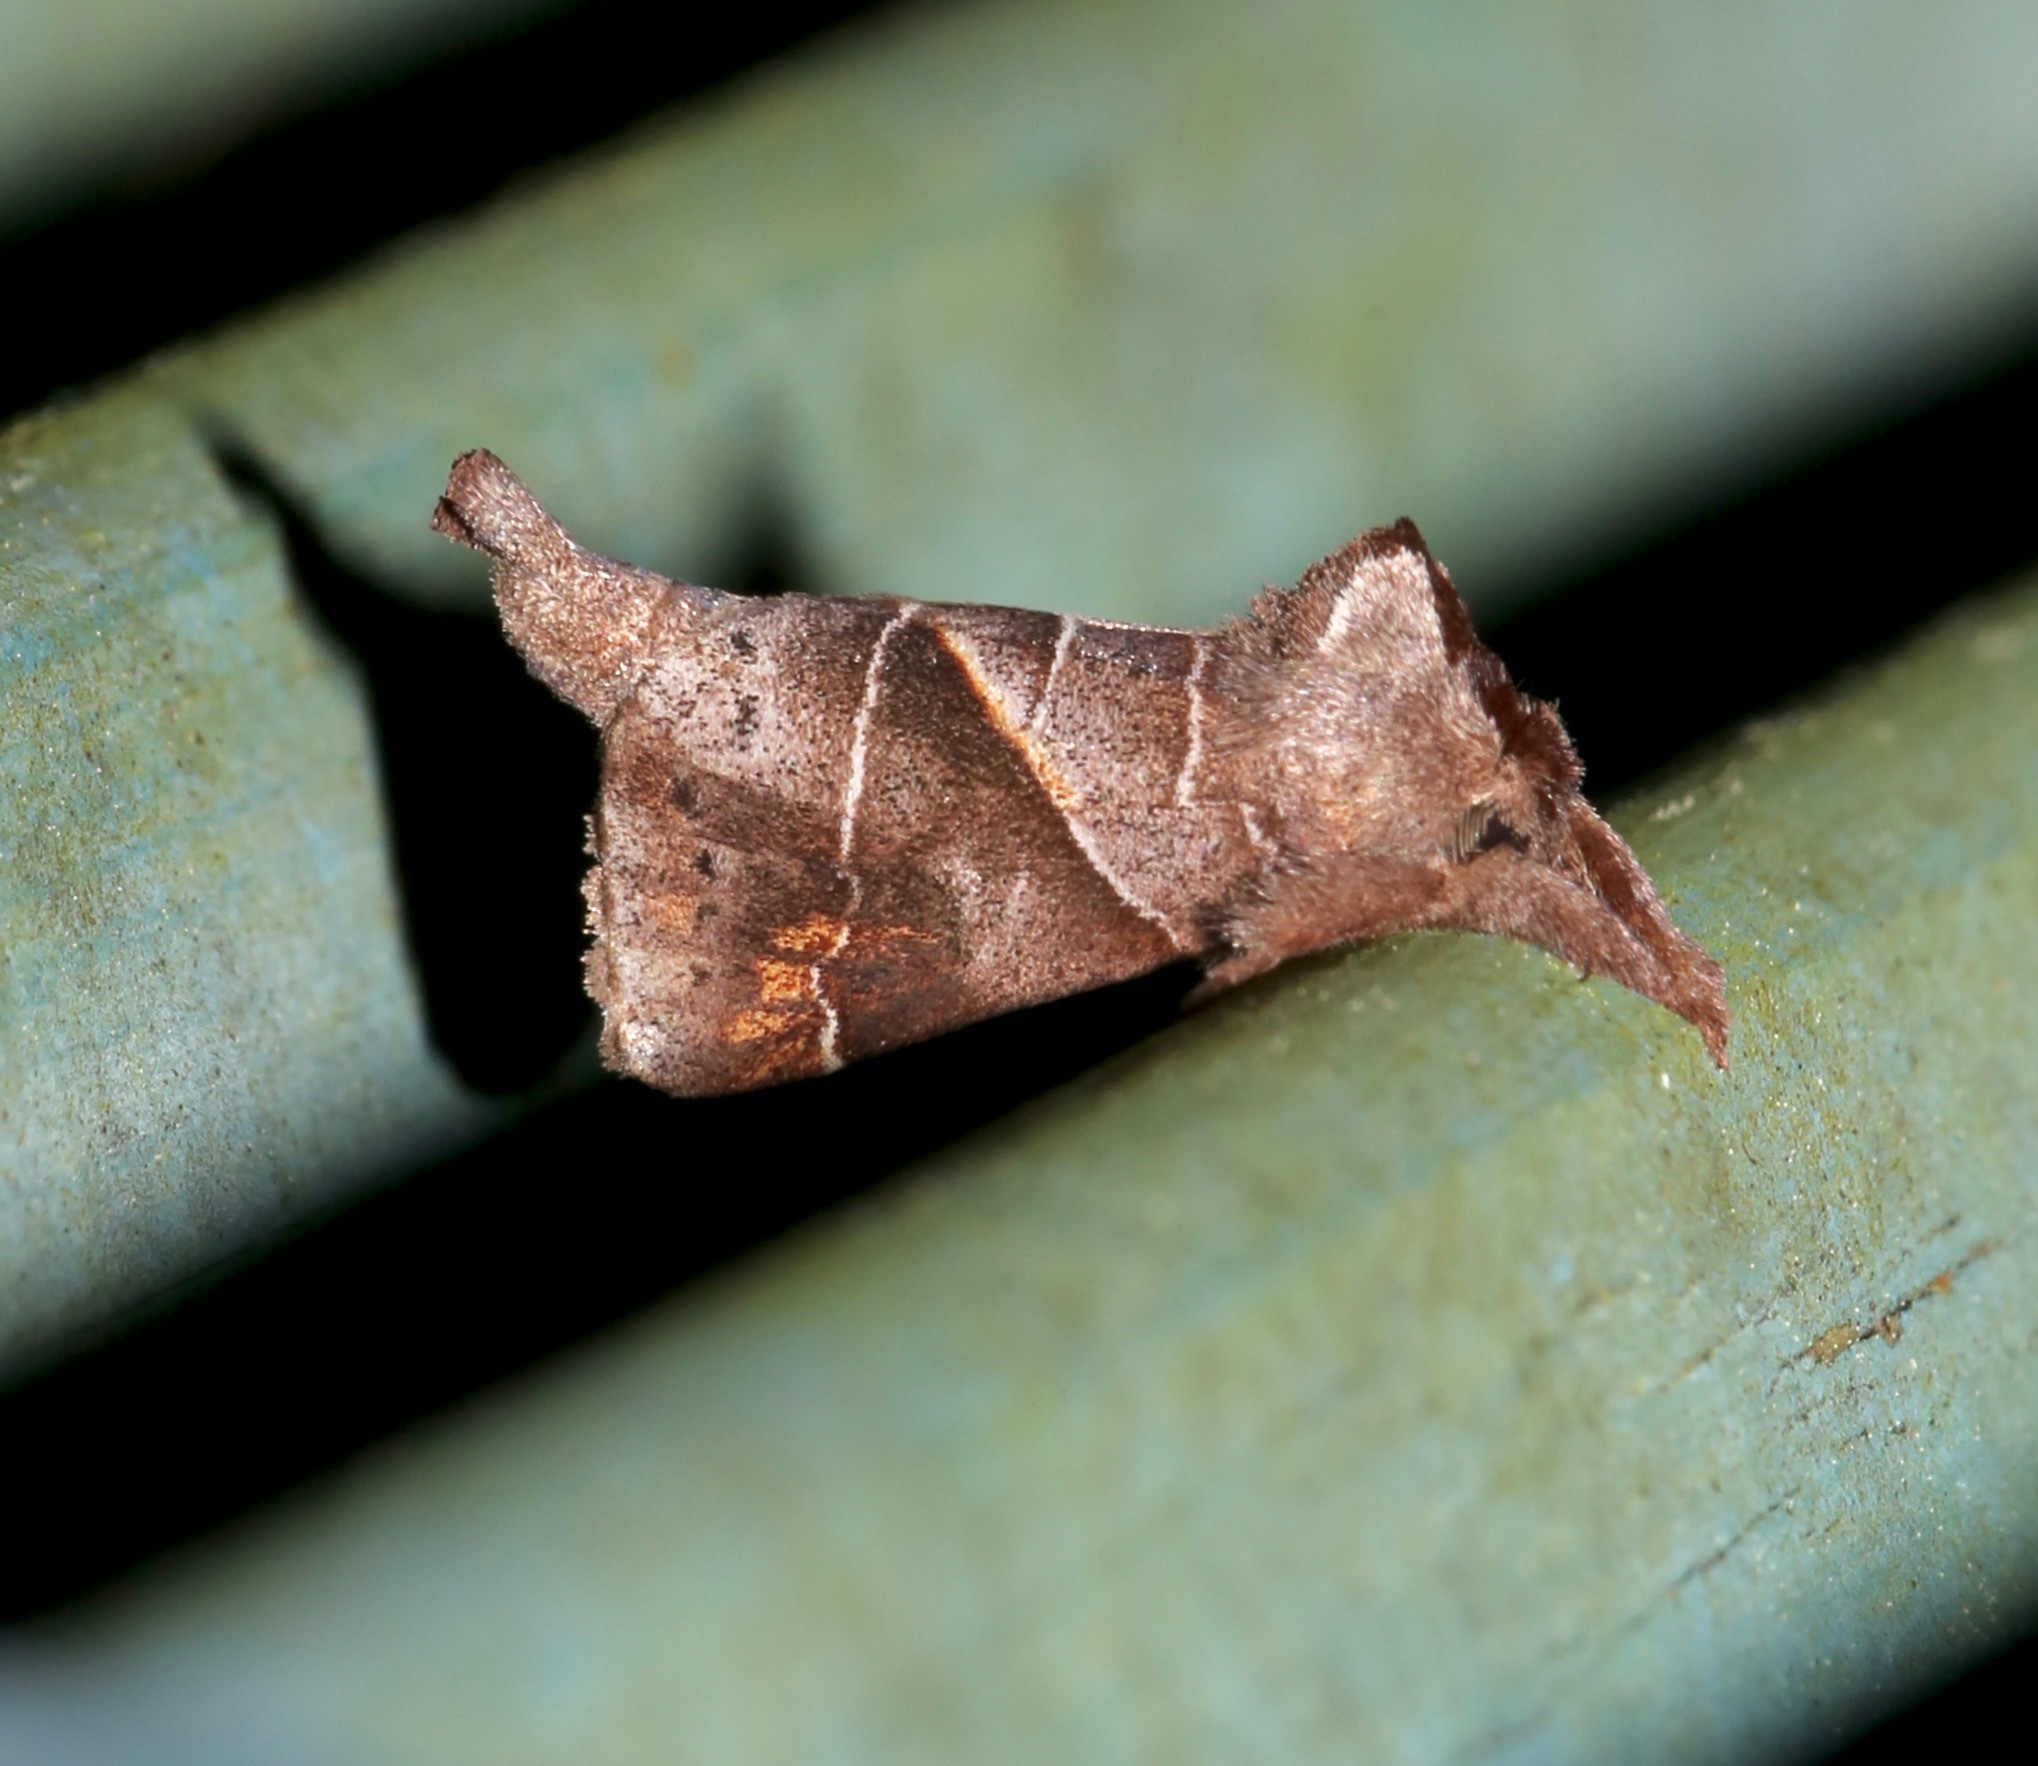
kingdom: Animalia
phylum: Arthropoda
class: Insecta
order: Lepidoptera
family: Notodontidae
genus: Clostera
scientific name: Clostera inclusa
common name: Angle-lined prominent
